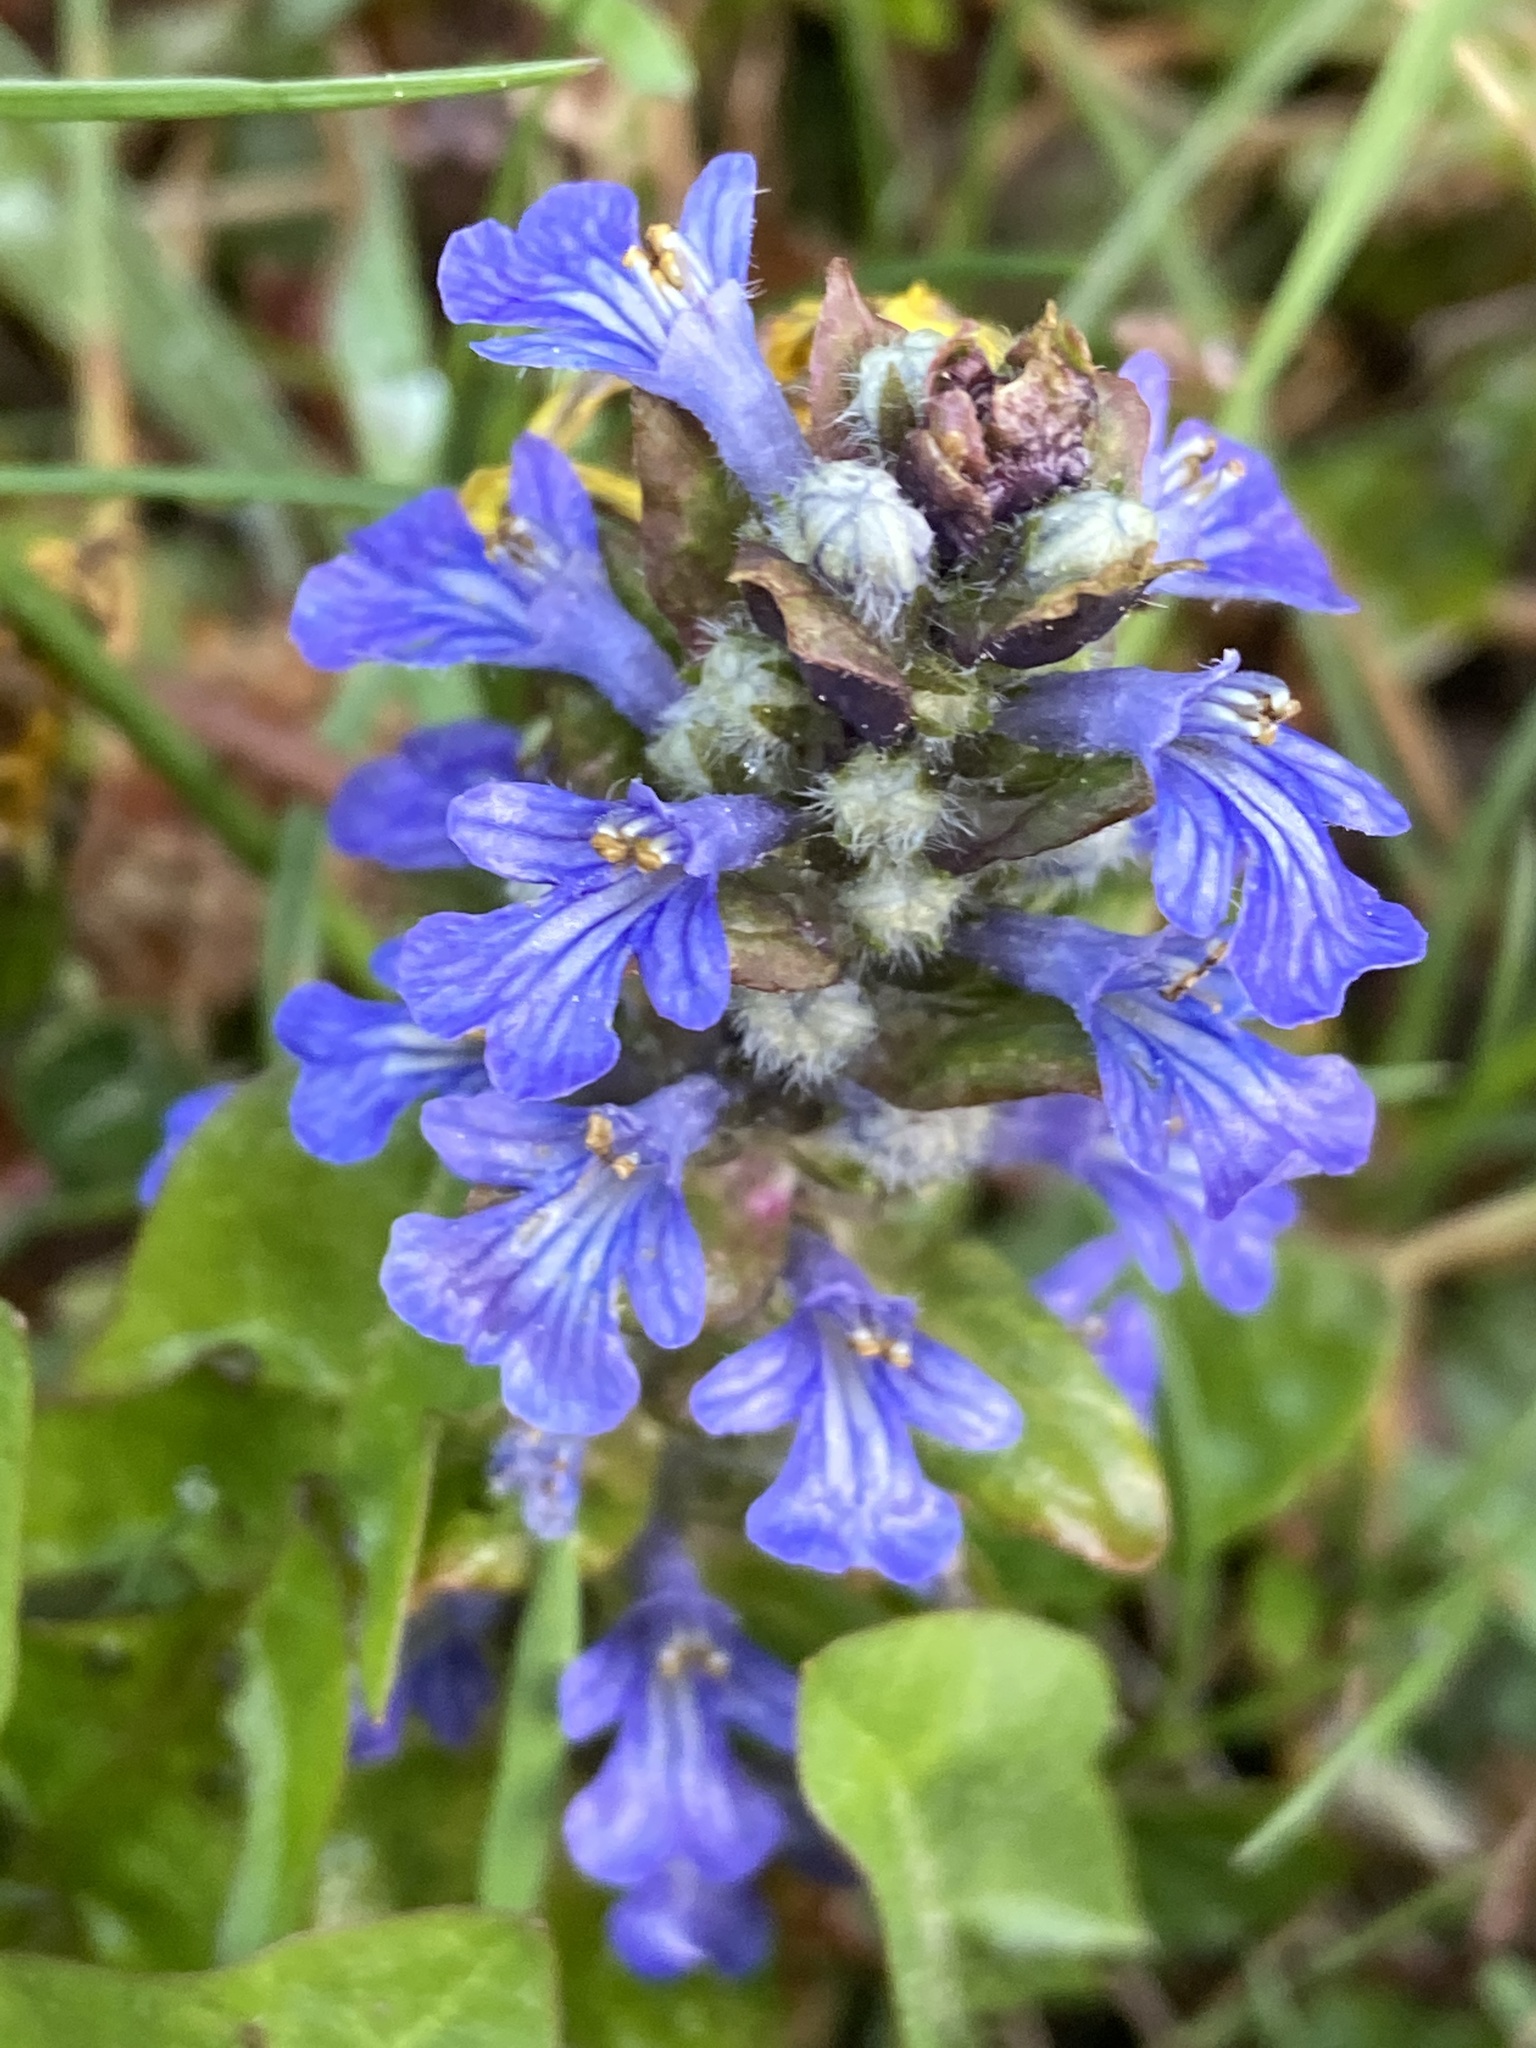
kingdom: Plantae
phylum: Tracheophyta
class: Magnoliopsida
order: Lamiales
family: Lamiaceae
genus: Ajuga
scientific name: Ajuga reptans
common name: Bugle
